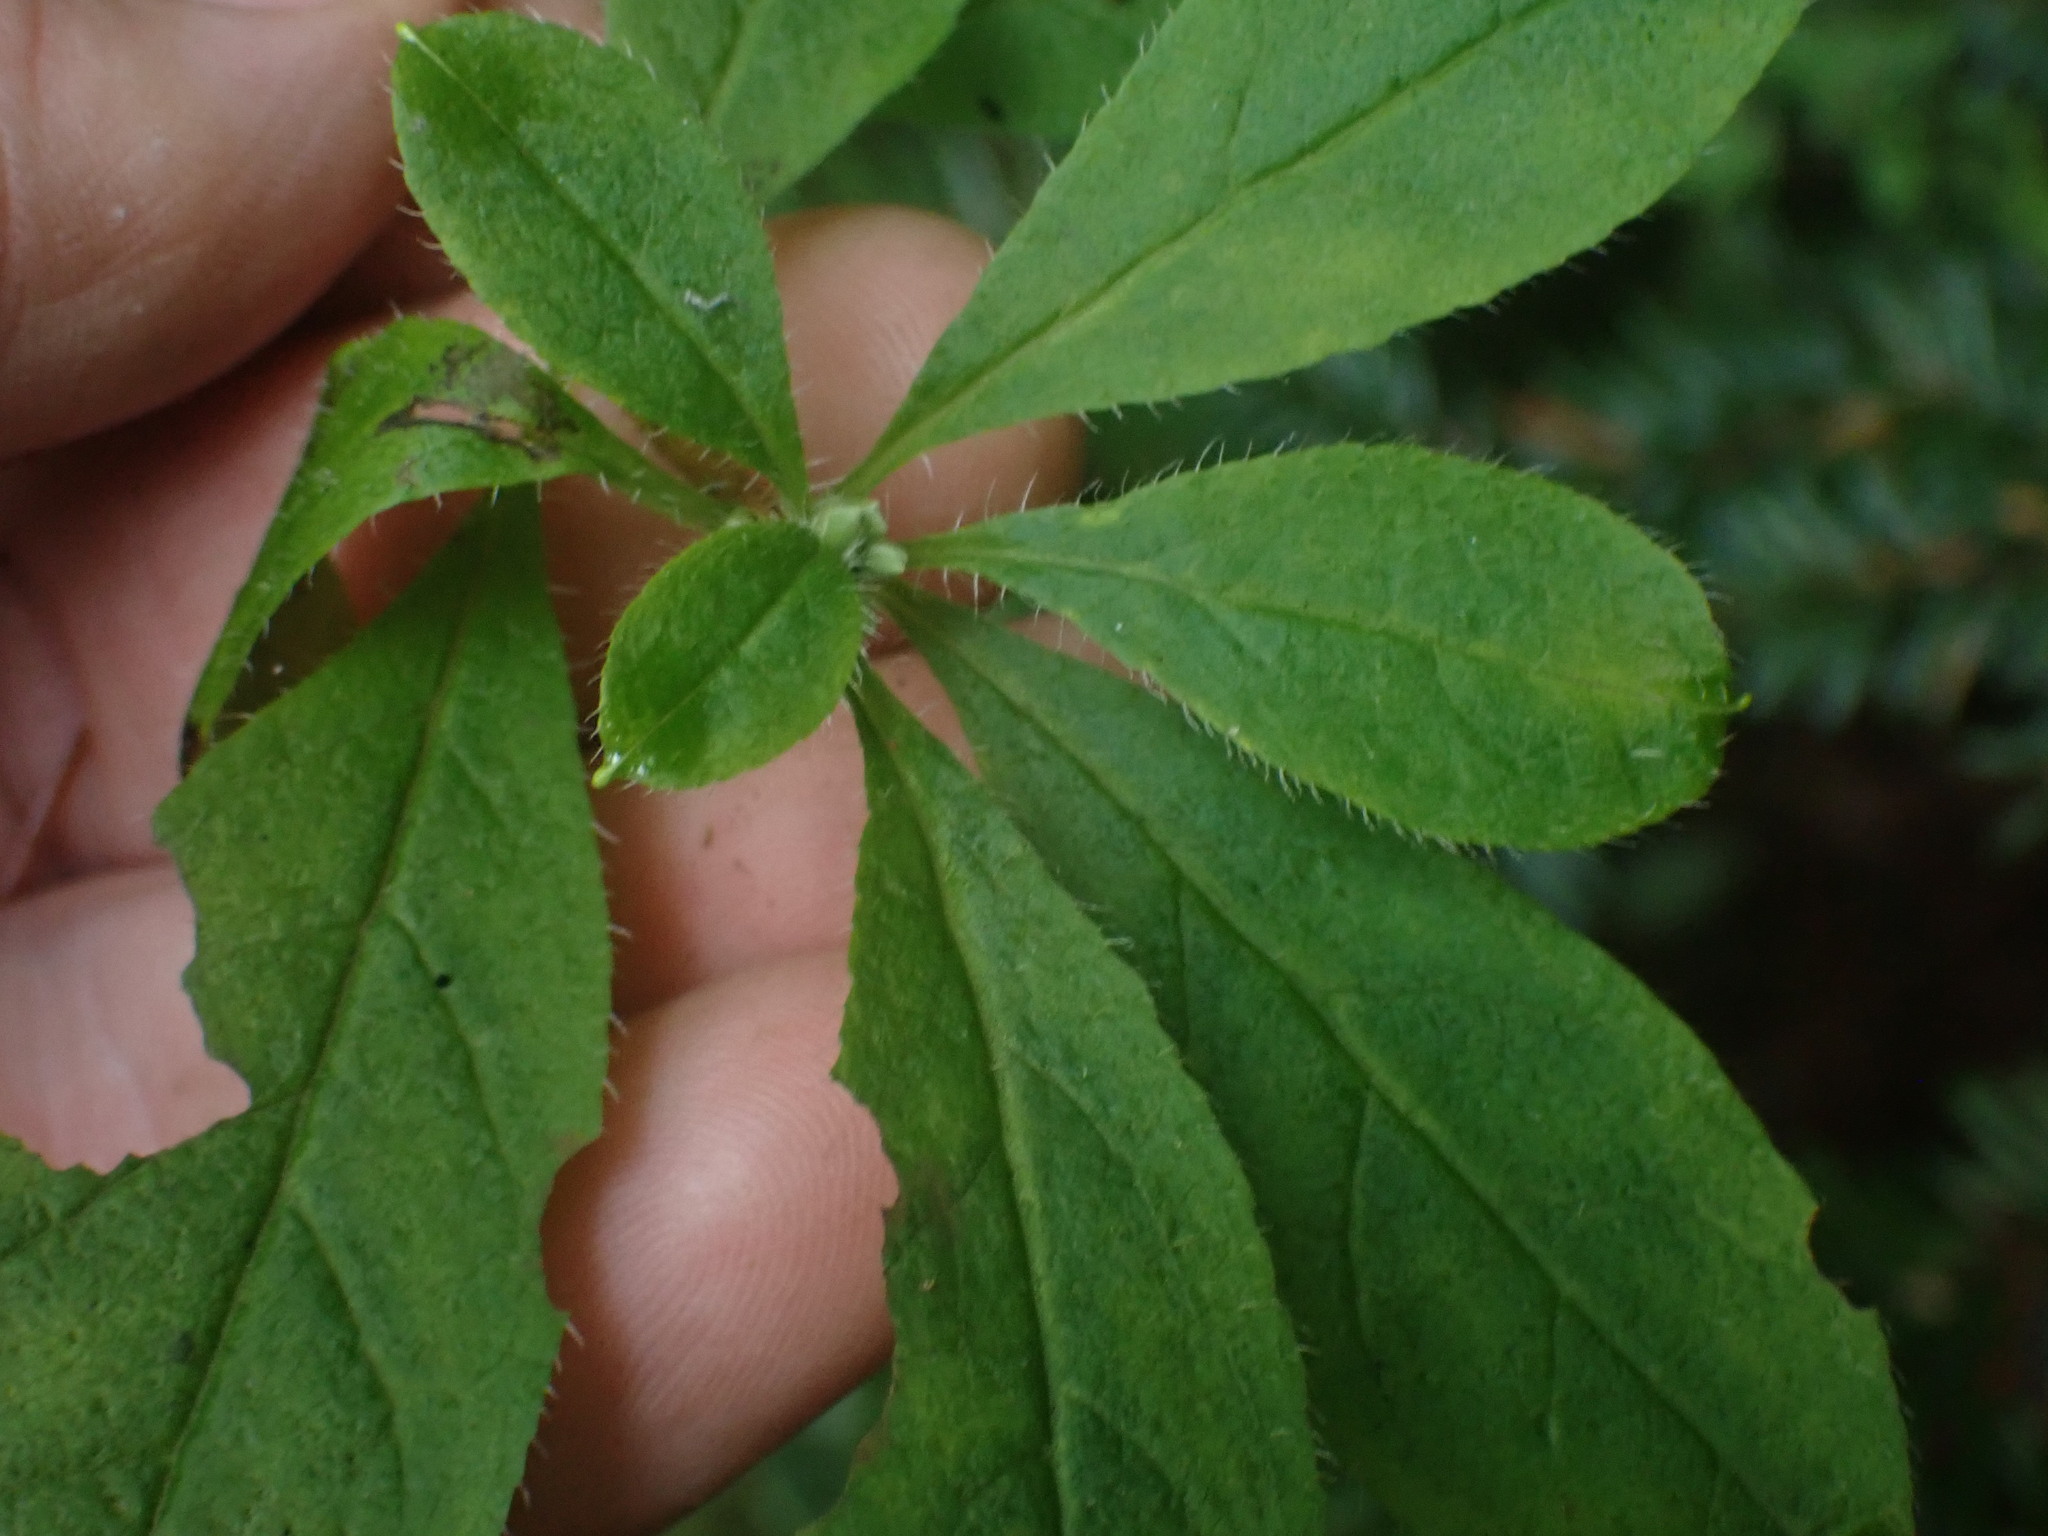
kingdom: Plantae
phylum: Tracheophyta
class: Magnoliopsida
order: Ericales
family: Ericaceae
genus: Rhododendron
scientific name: Rhododendron menziesii
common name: Pacific menziesia
